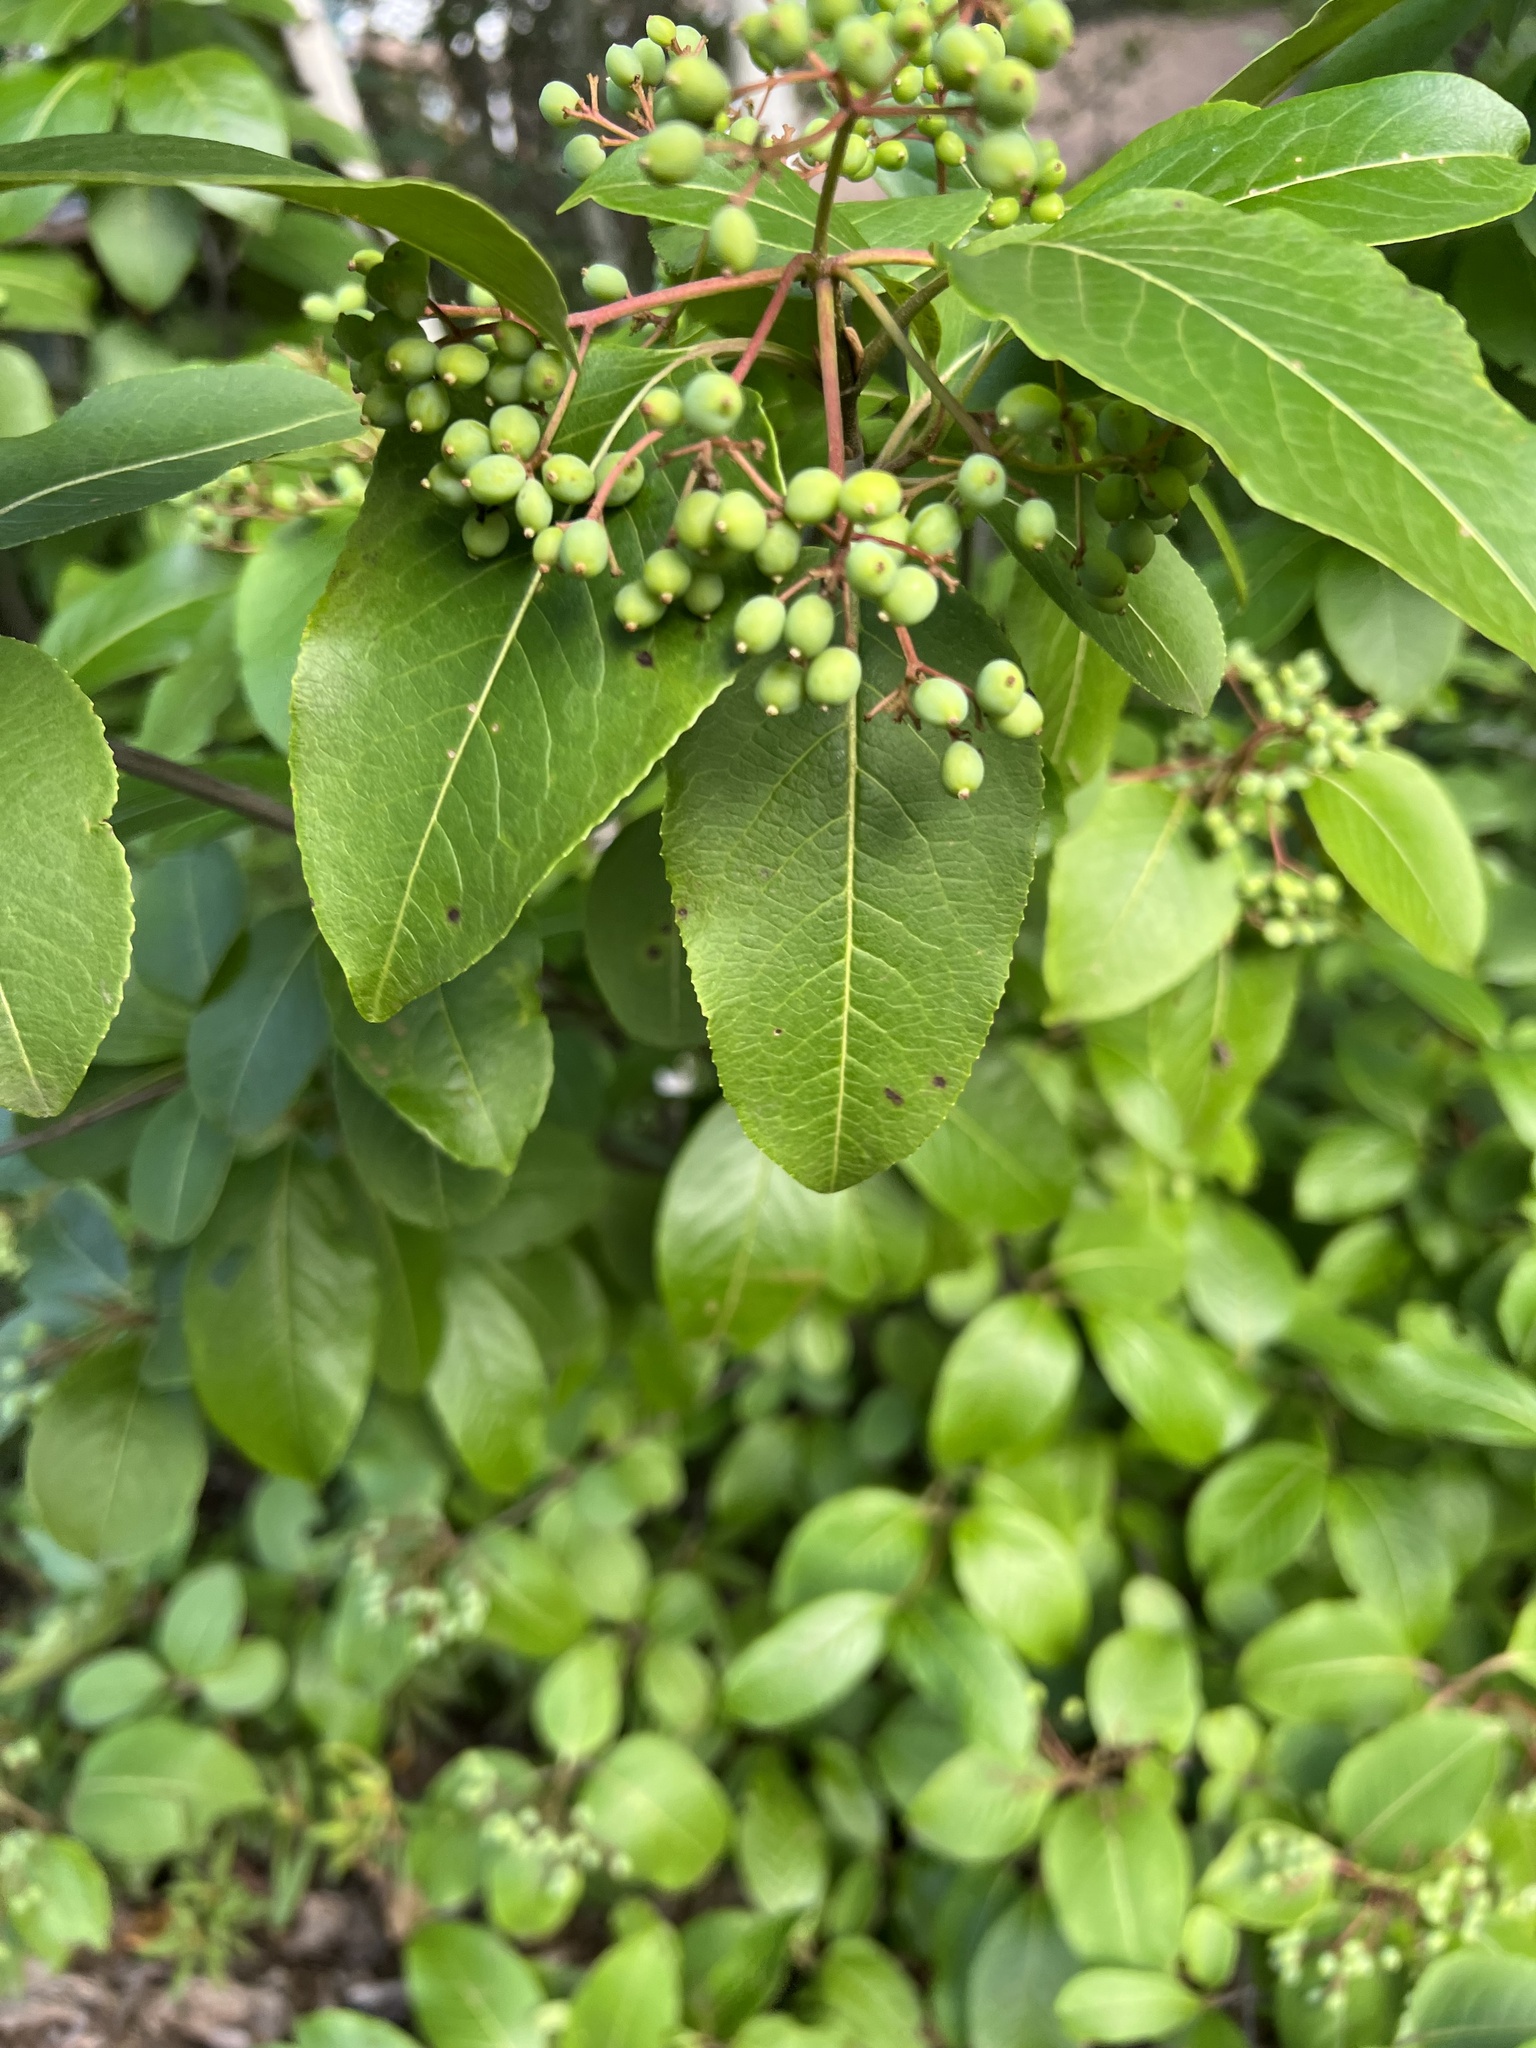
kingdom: Plantae
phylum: Tracheophyta
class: Magnoliopsida
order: Dipsacales
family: Viburnaceae
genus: Viburnum
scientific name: Viburnum cassinoides
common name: Swamp haw
